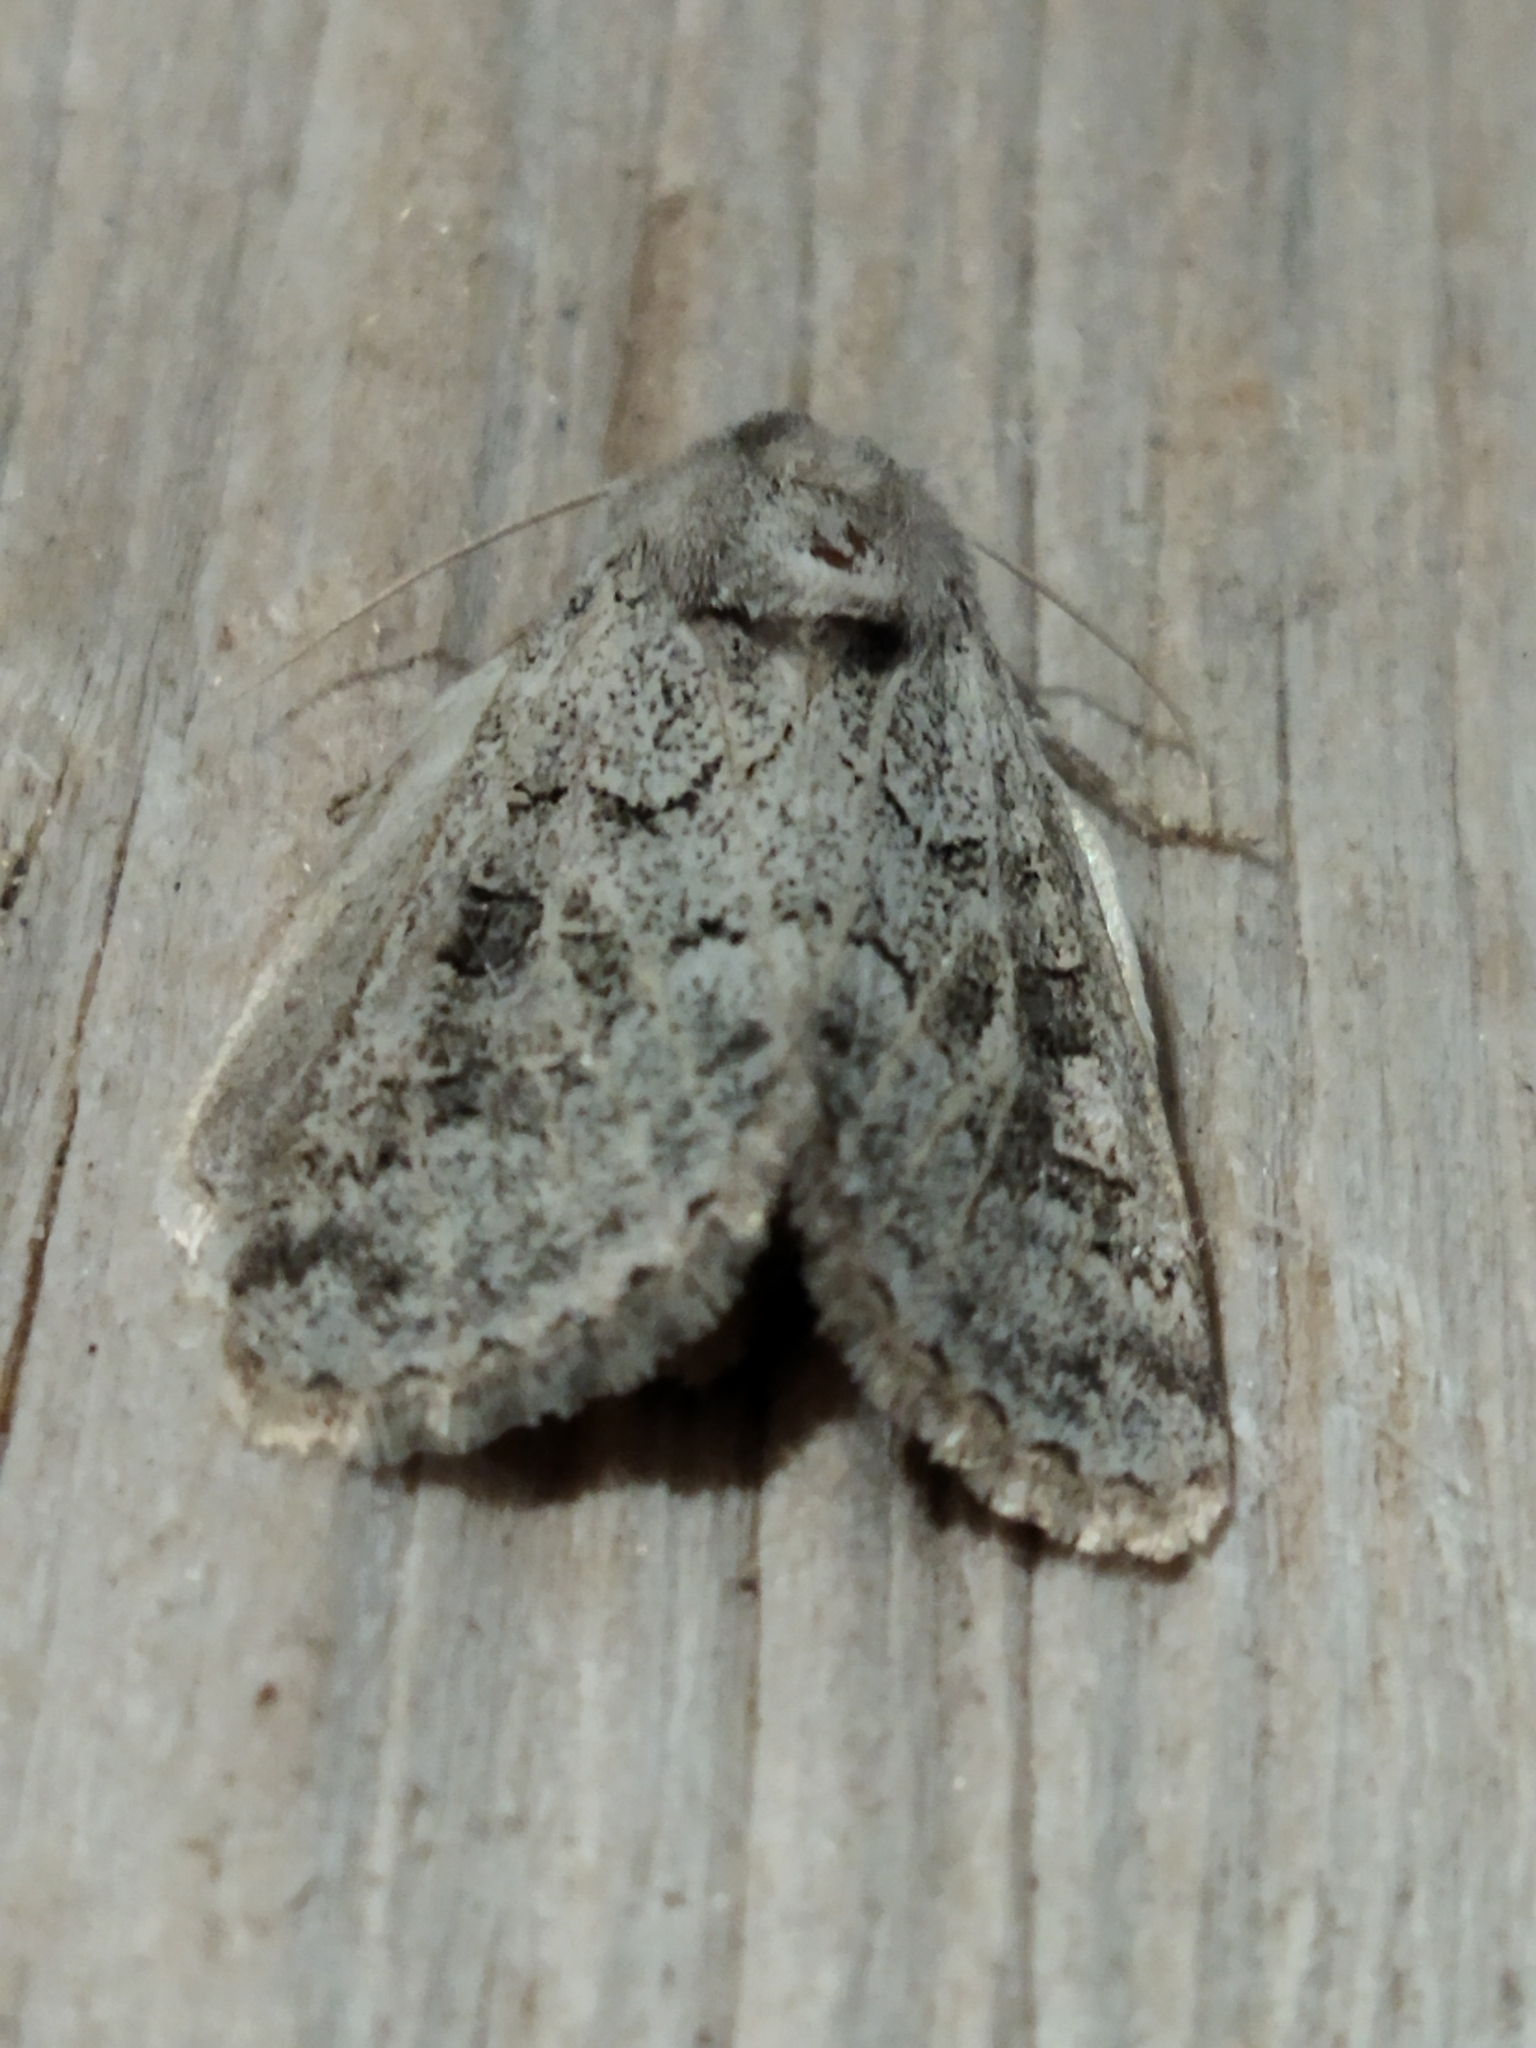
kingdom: Animalia
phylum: Arthropoda
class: Insecta
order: Lepidoptera
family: Noctuidae
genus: Episema
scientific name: Episema lederi
